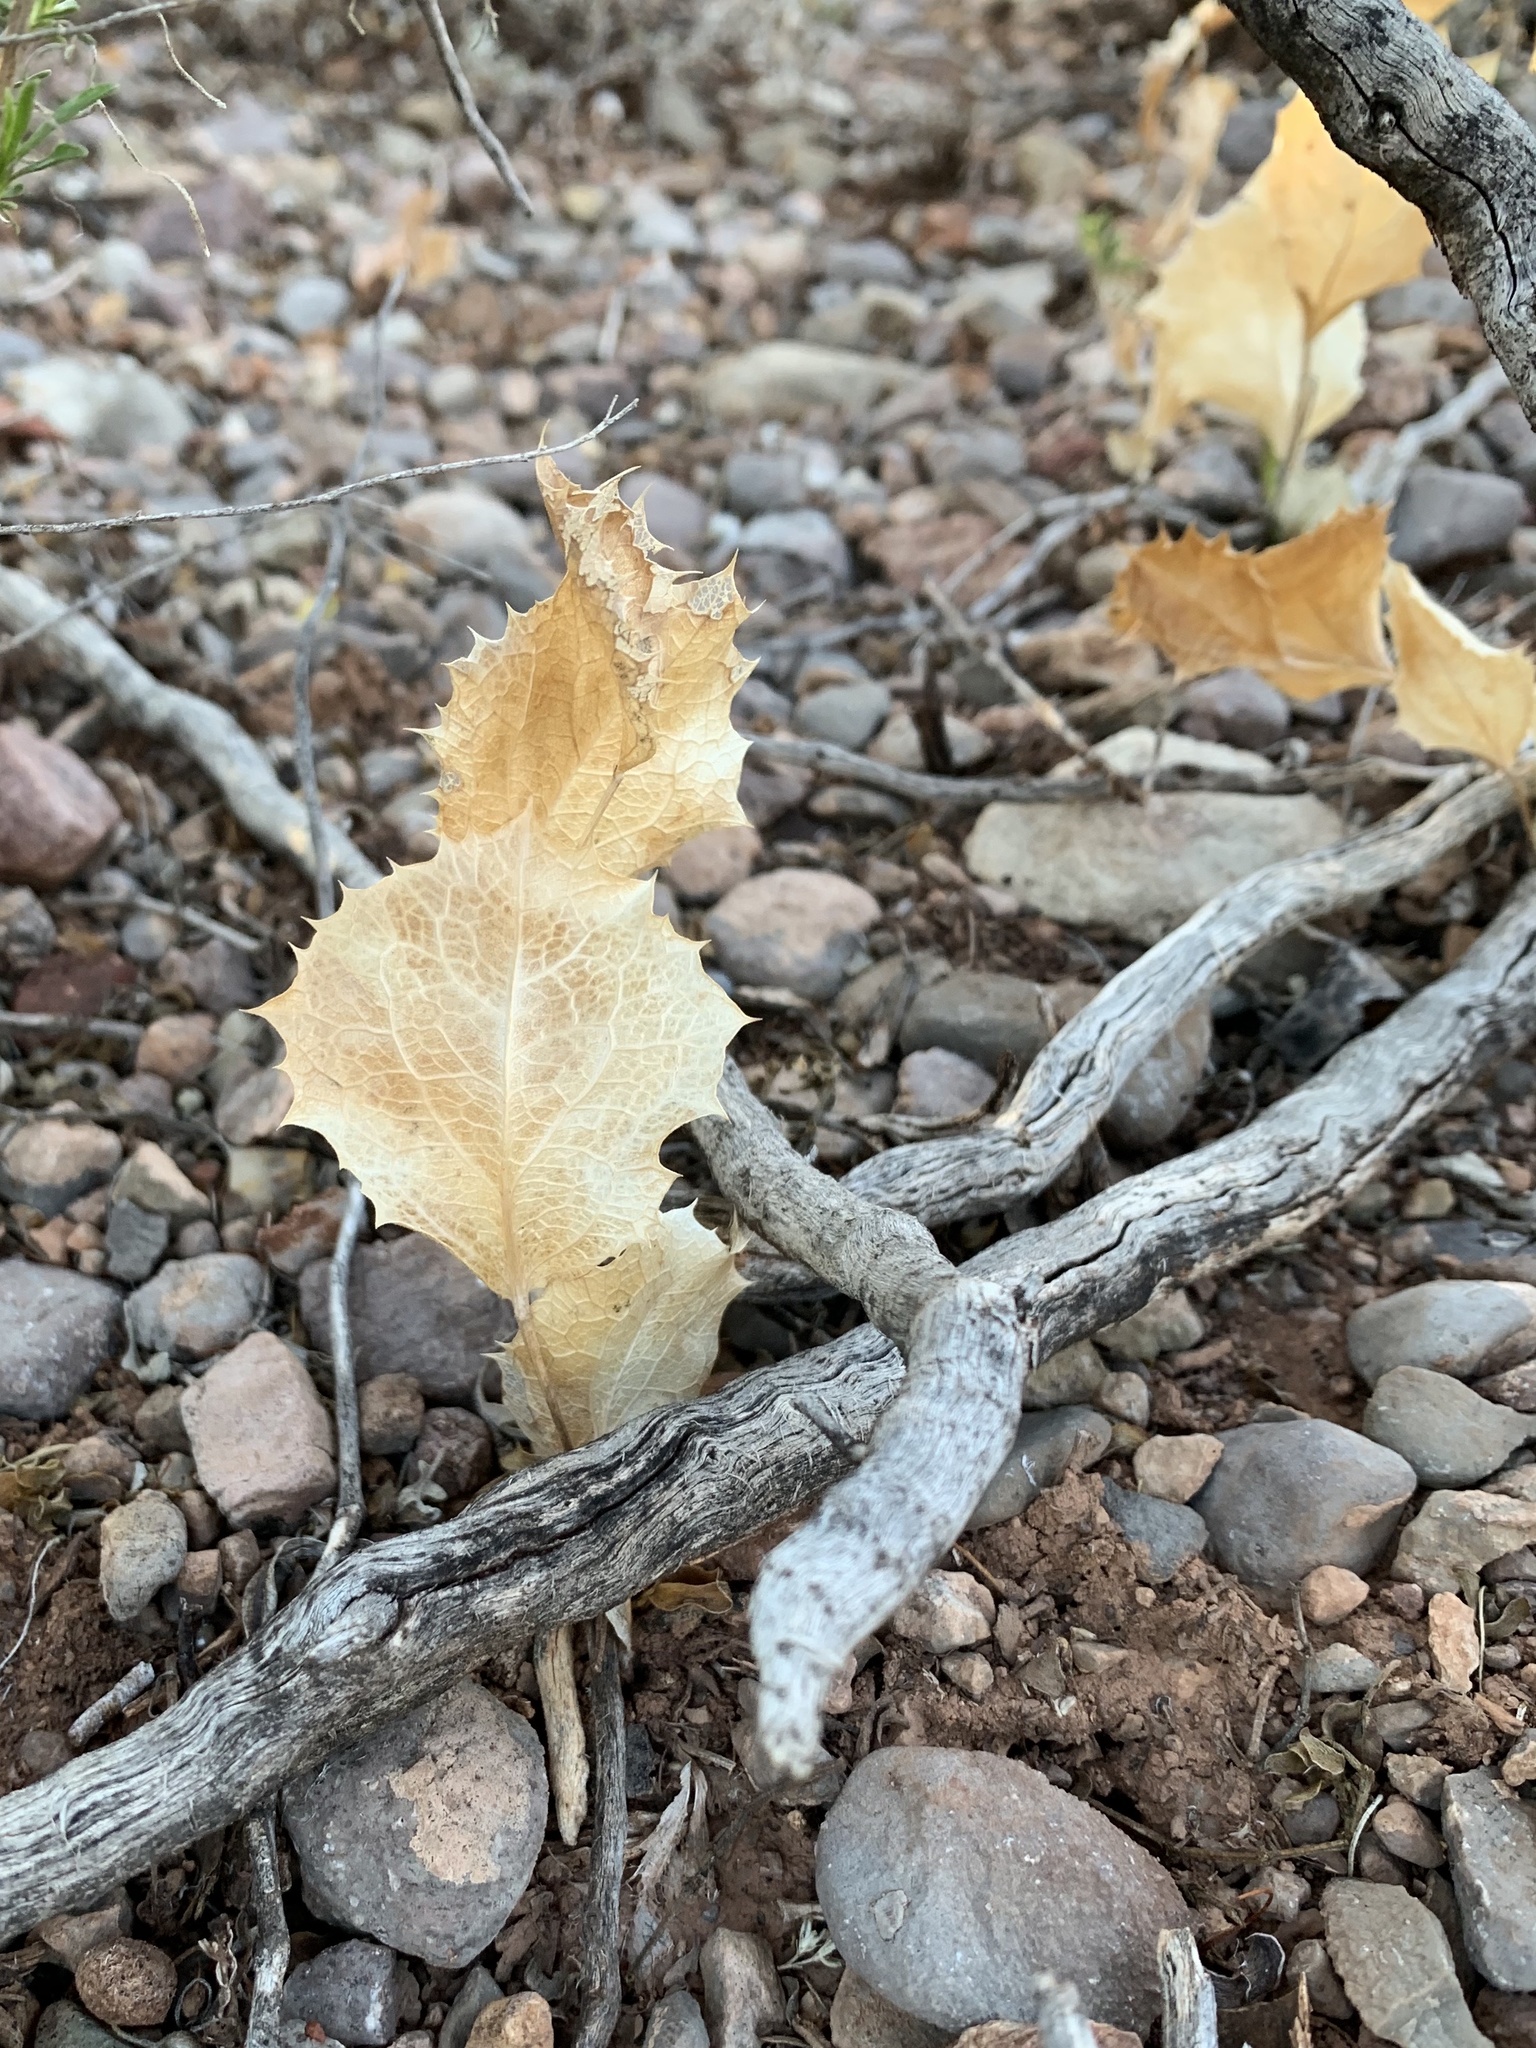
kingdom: Plantae
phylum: Tracheophyta
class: Magnoliopsida
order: Asterales
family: Asteraceae
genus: Acourtia
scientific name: Acourtia nana
